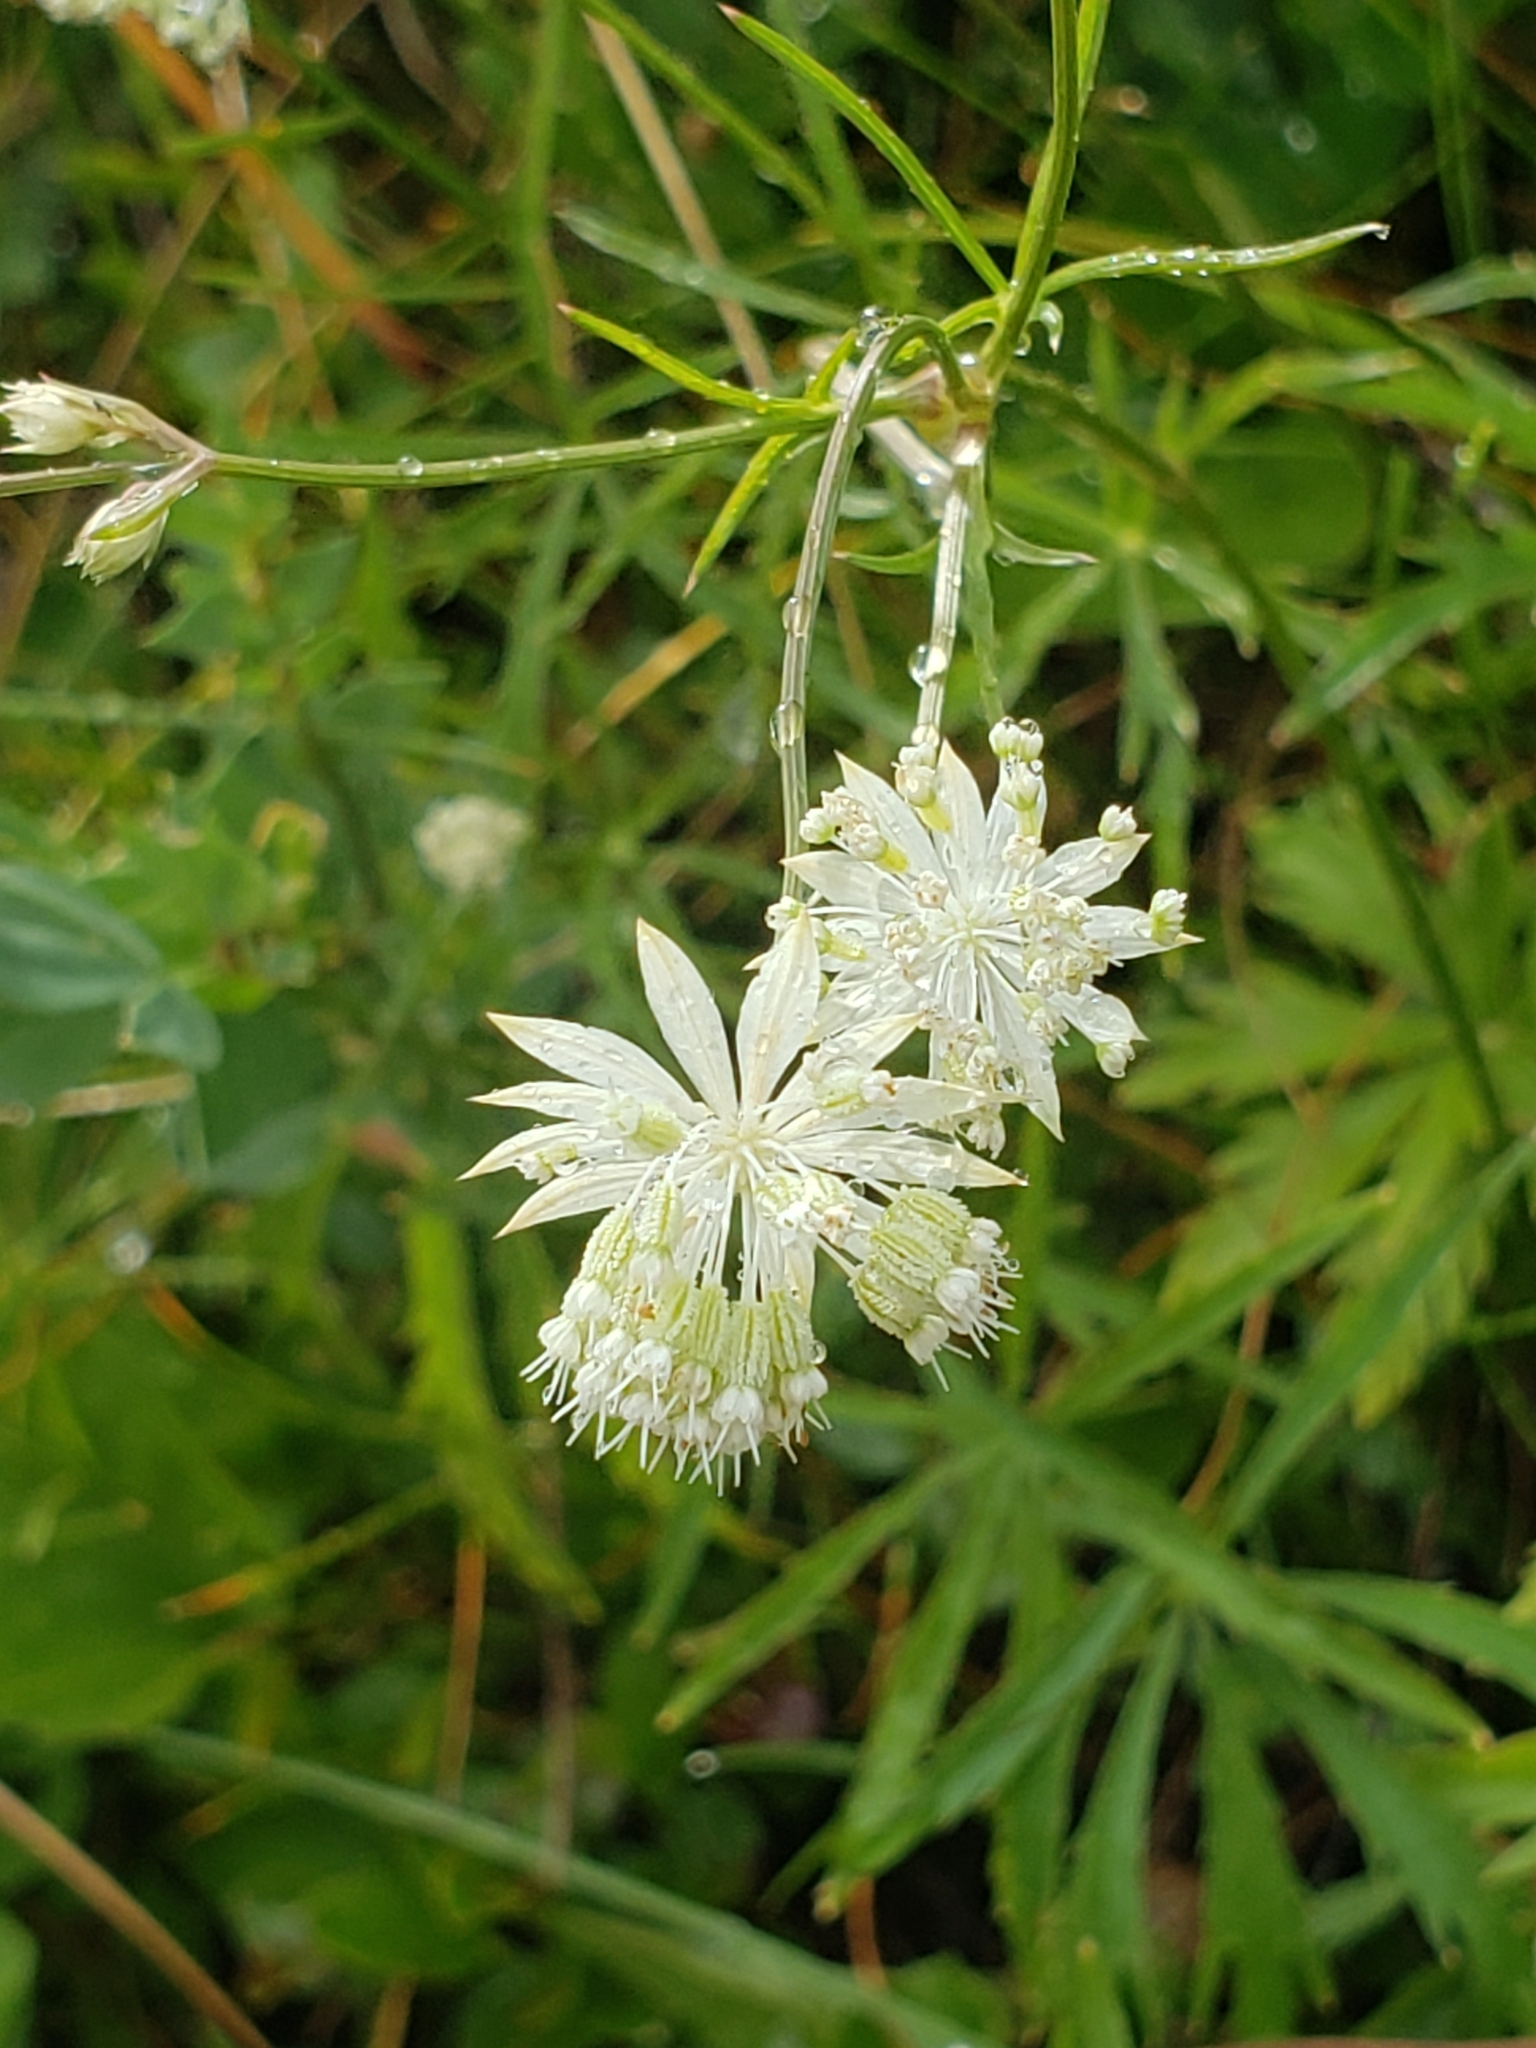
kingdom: Plantae
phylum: Tracheophyta
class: Magnoliopsida
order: Apiales
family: Apiaceae
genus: Astrantia
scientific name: Astrantia minor
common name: Lesser masterwort
